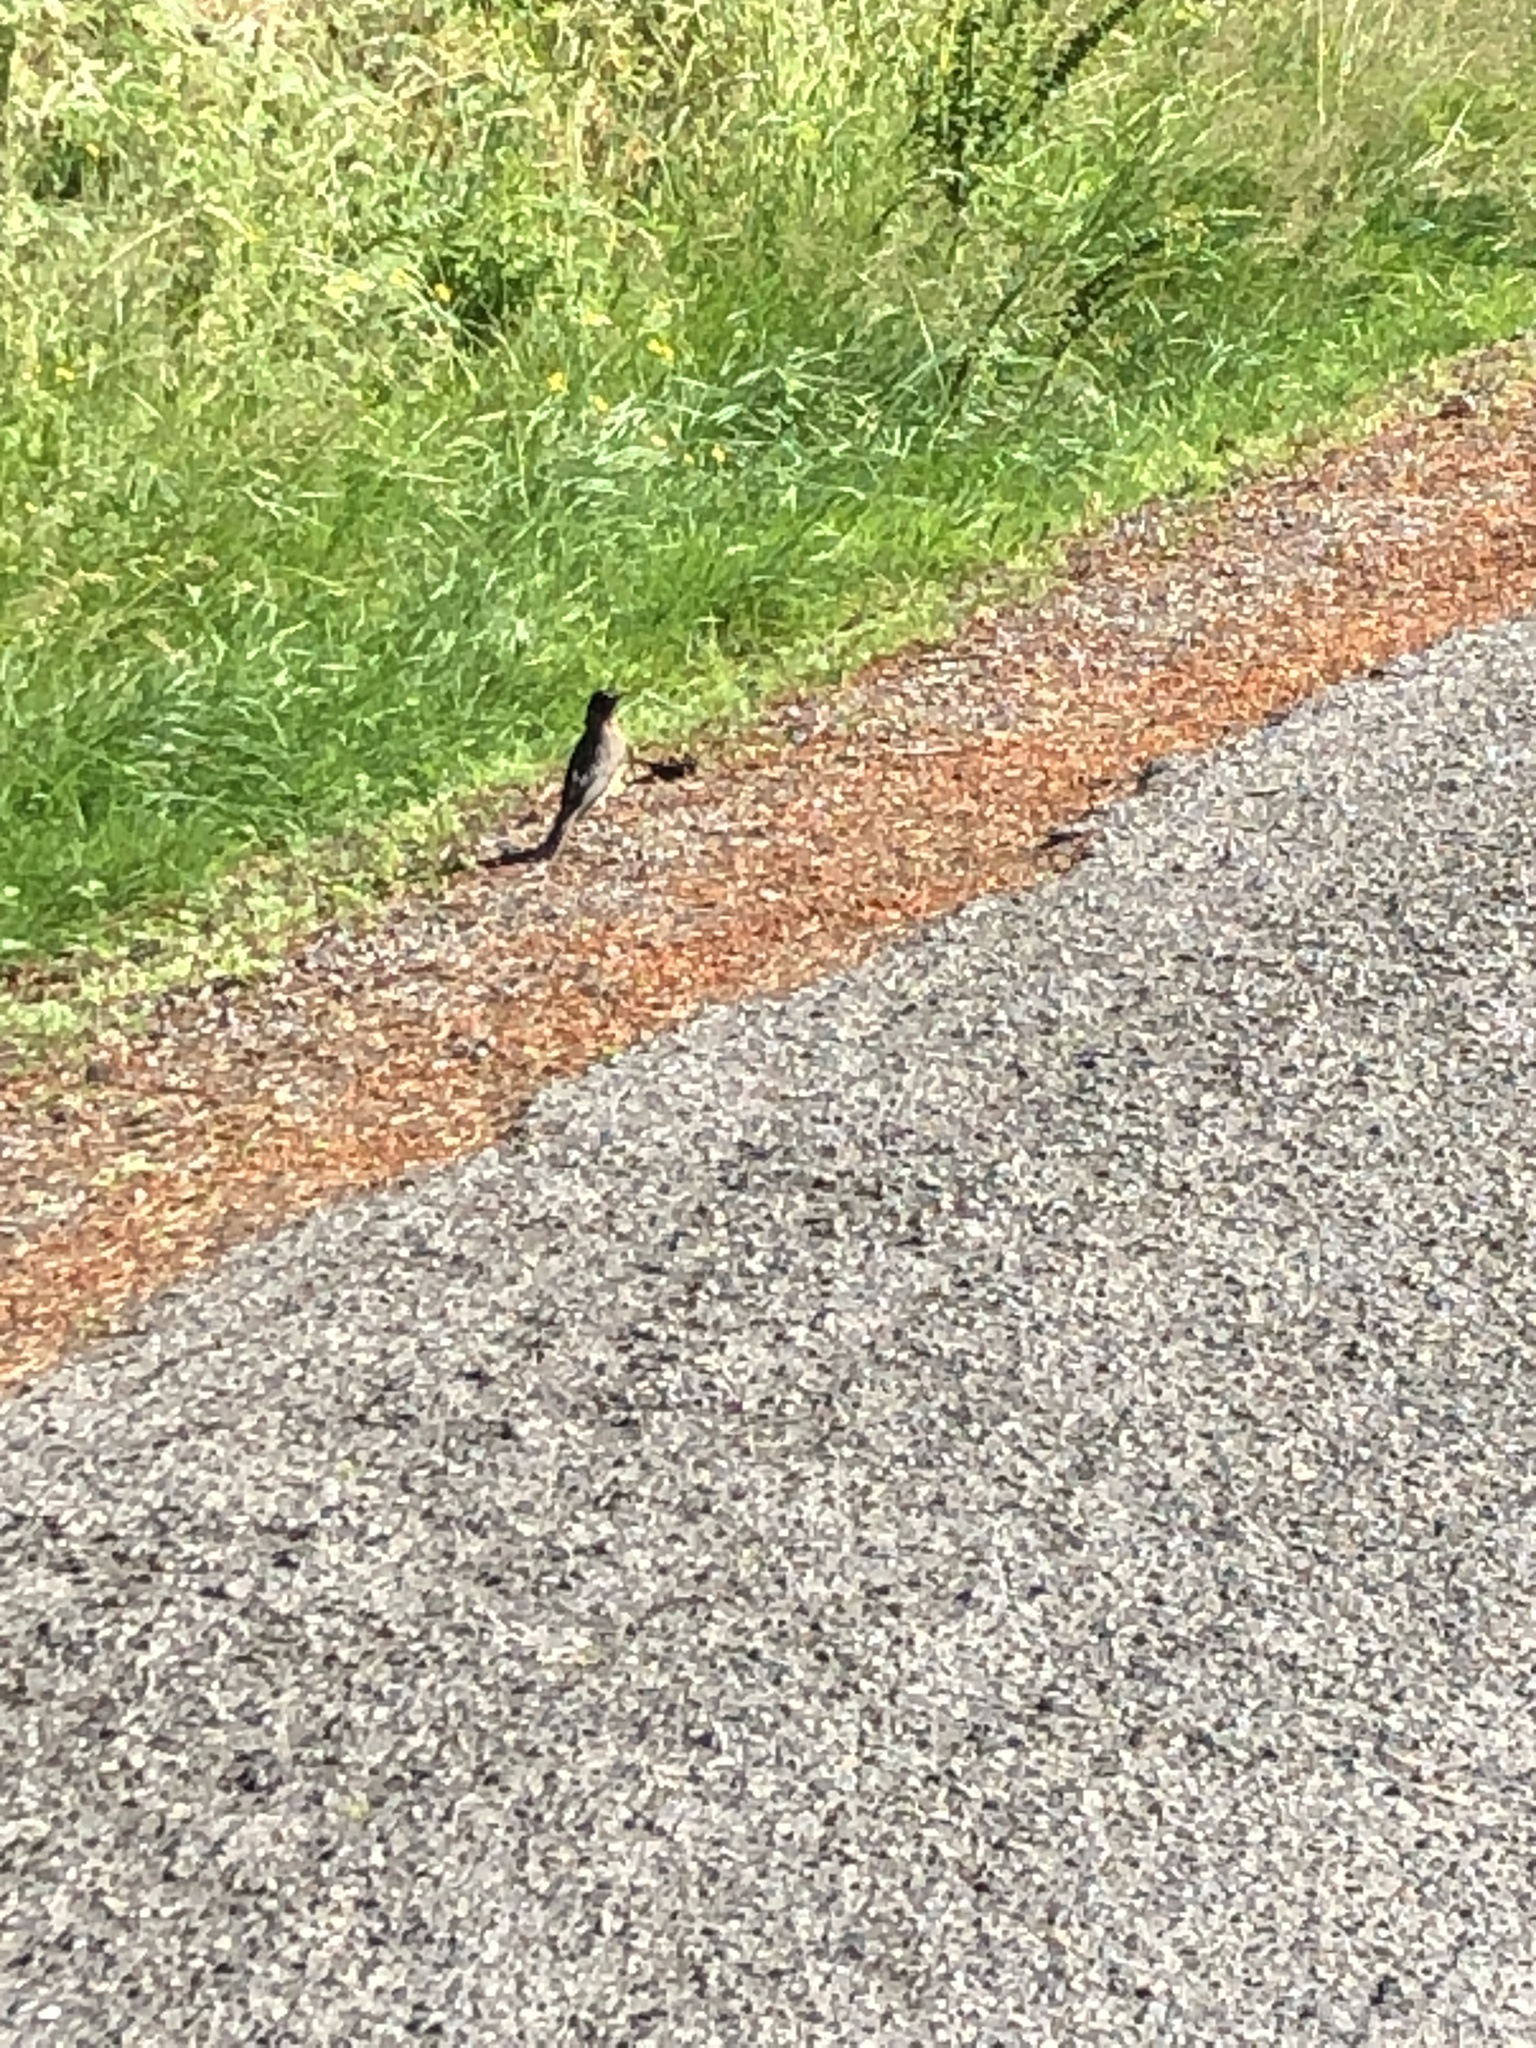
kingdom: Animalia
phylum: Chordata
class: Aves
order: Passeriformes
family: Turdidae
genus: Turdus
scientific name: Turdus migratorius
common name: American robin
